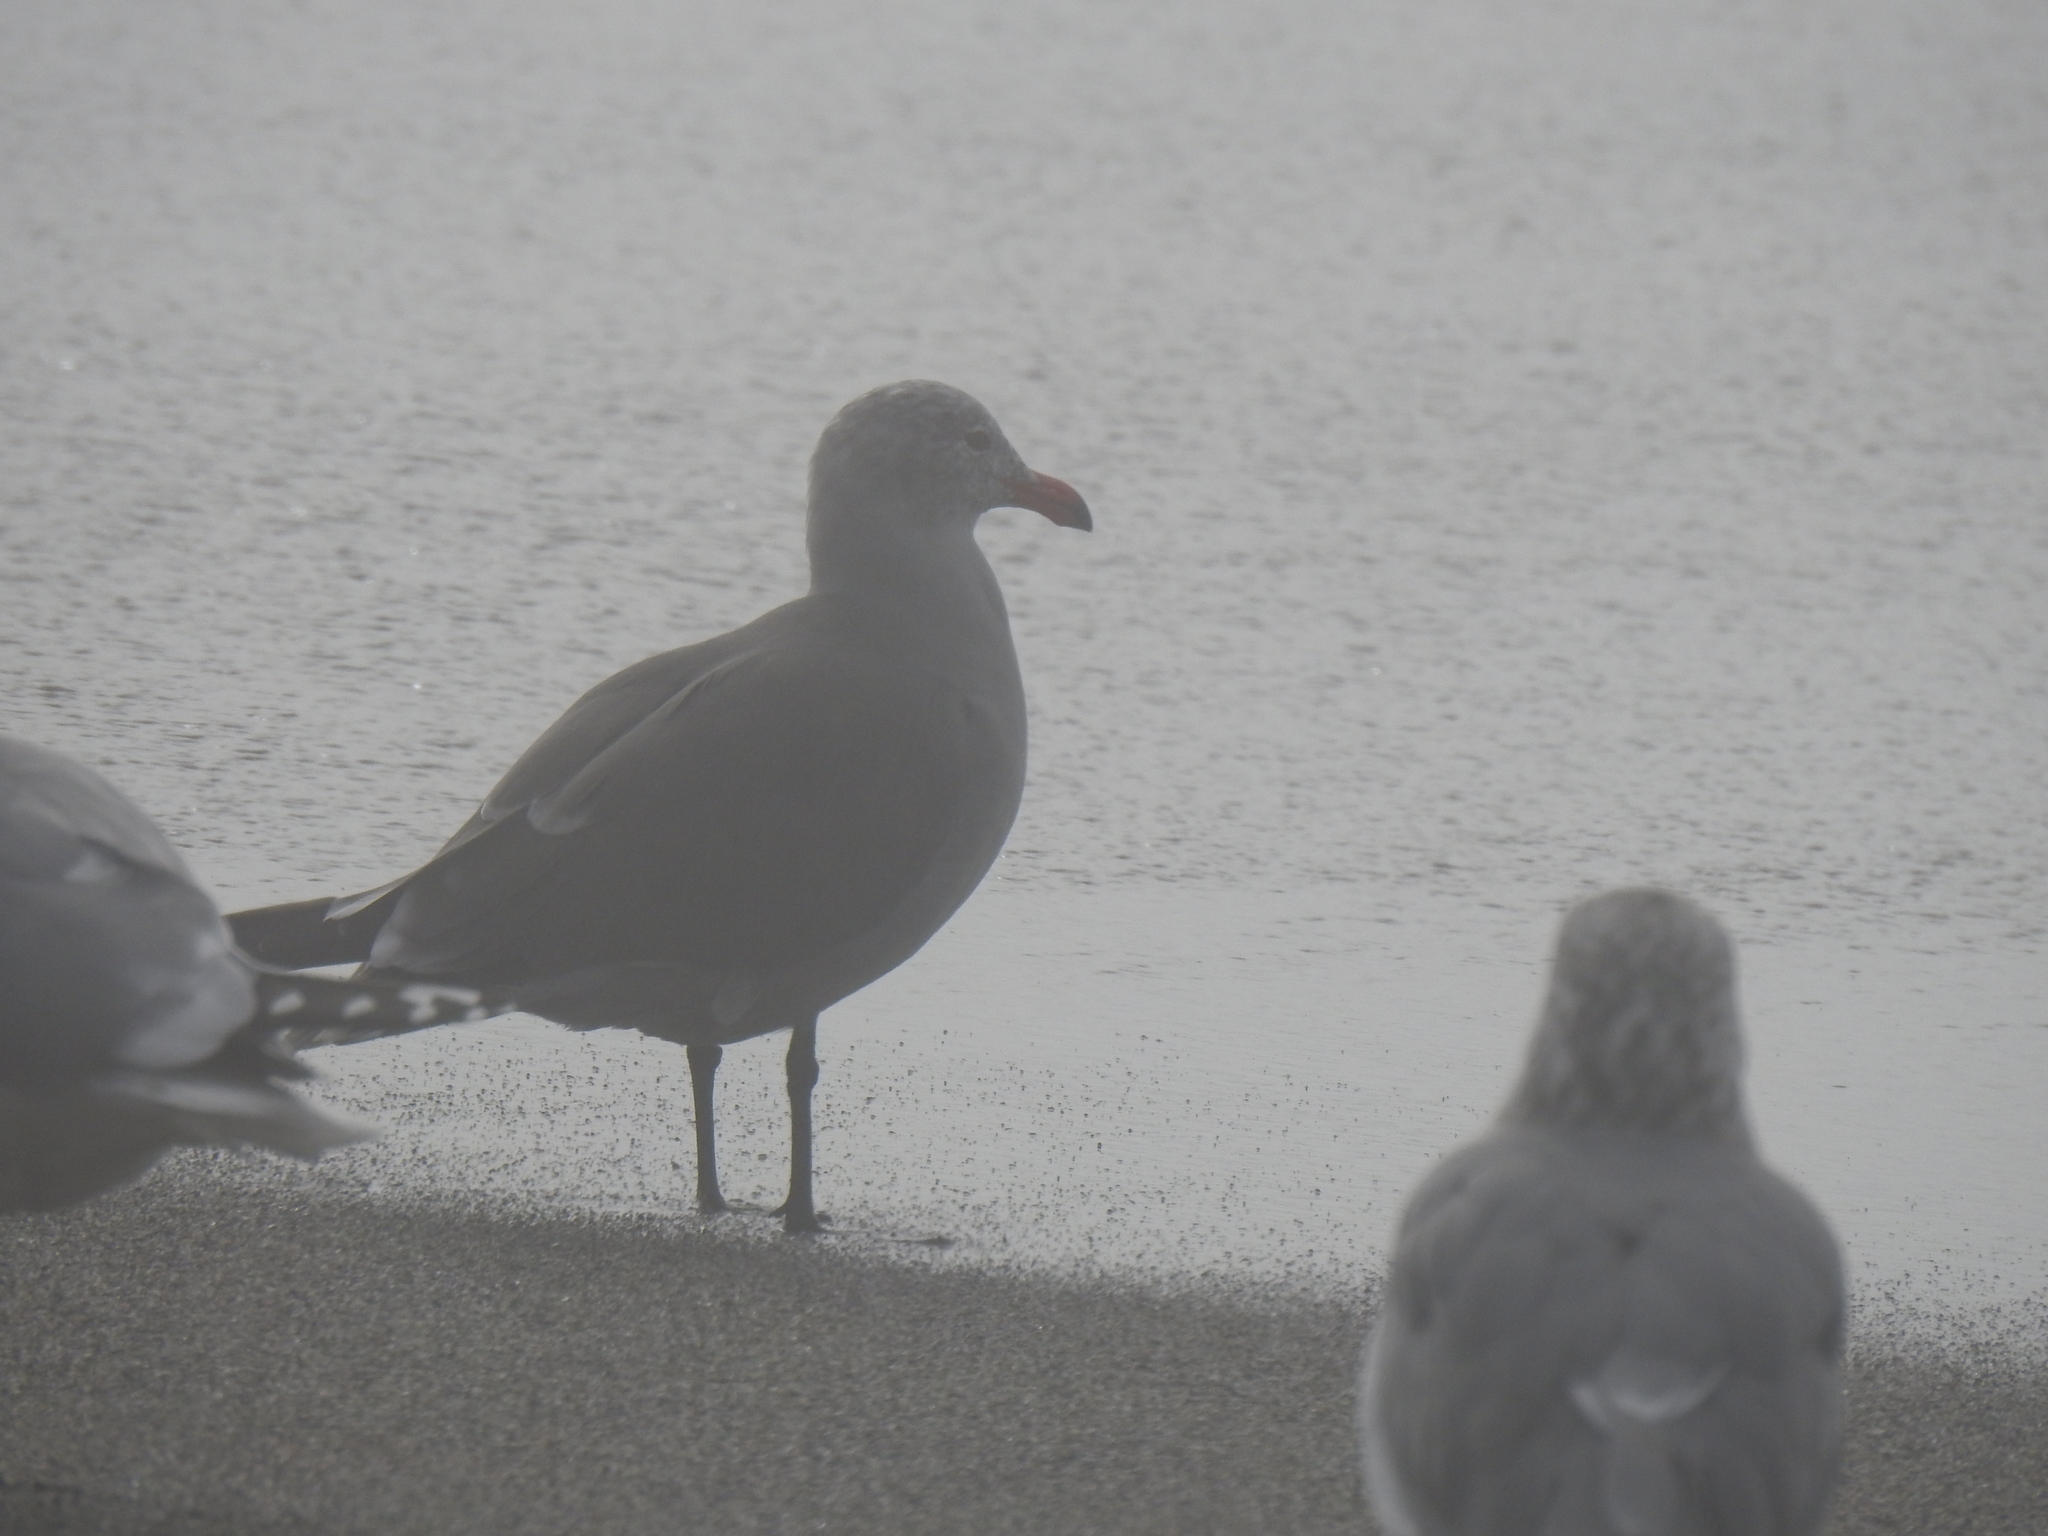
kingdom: Animalia
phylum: Chordata
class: Aves
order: Charadriiformes
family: Laridae
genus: Larus
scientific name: Larus heermanni
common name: Heermann's gull
